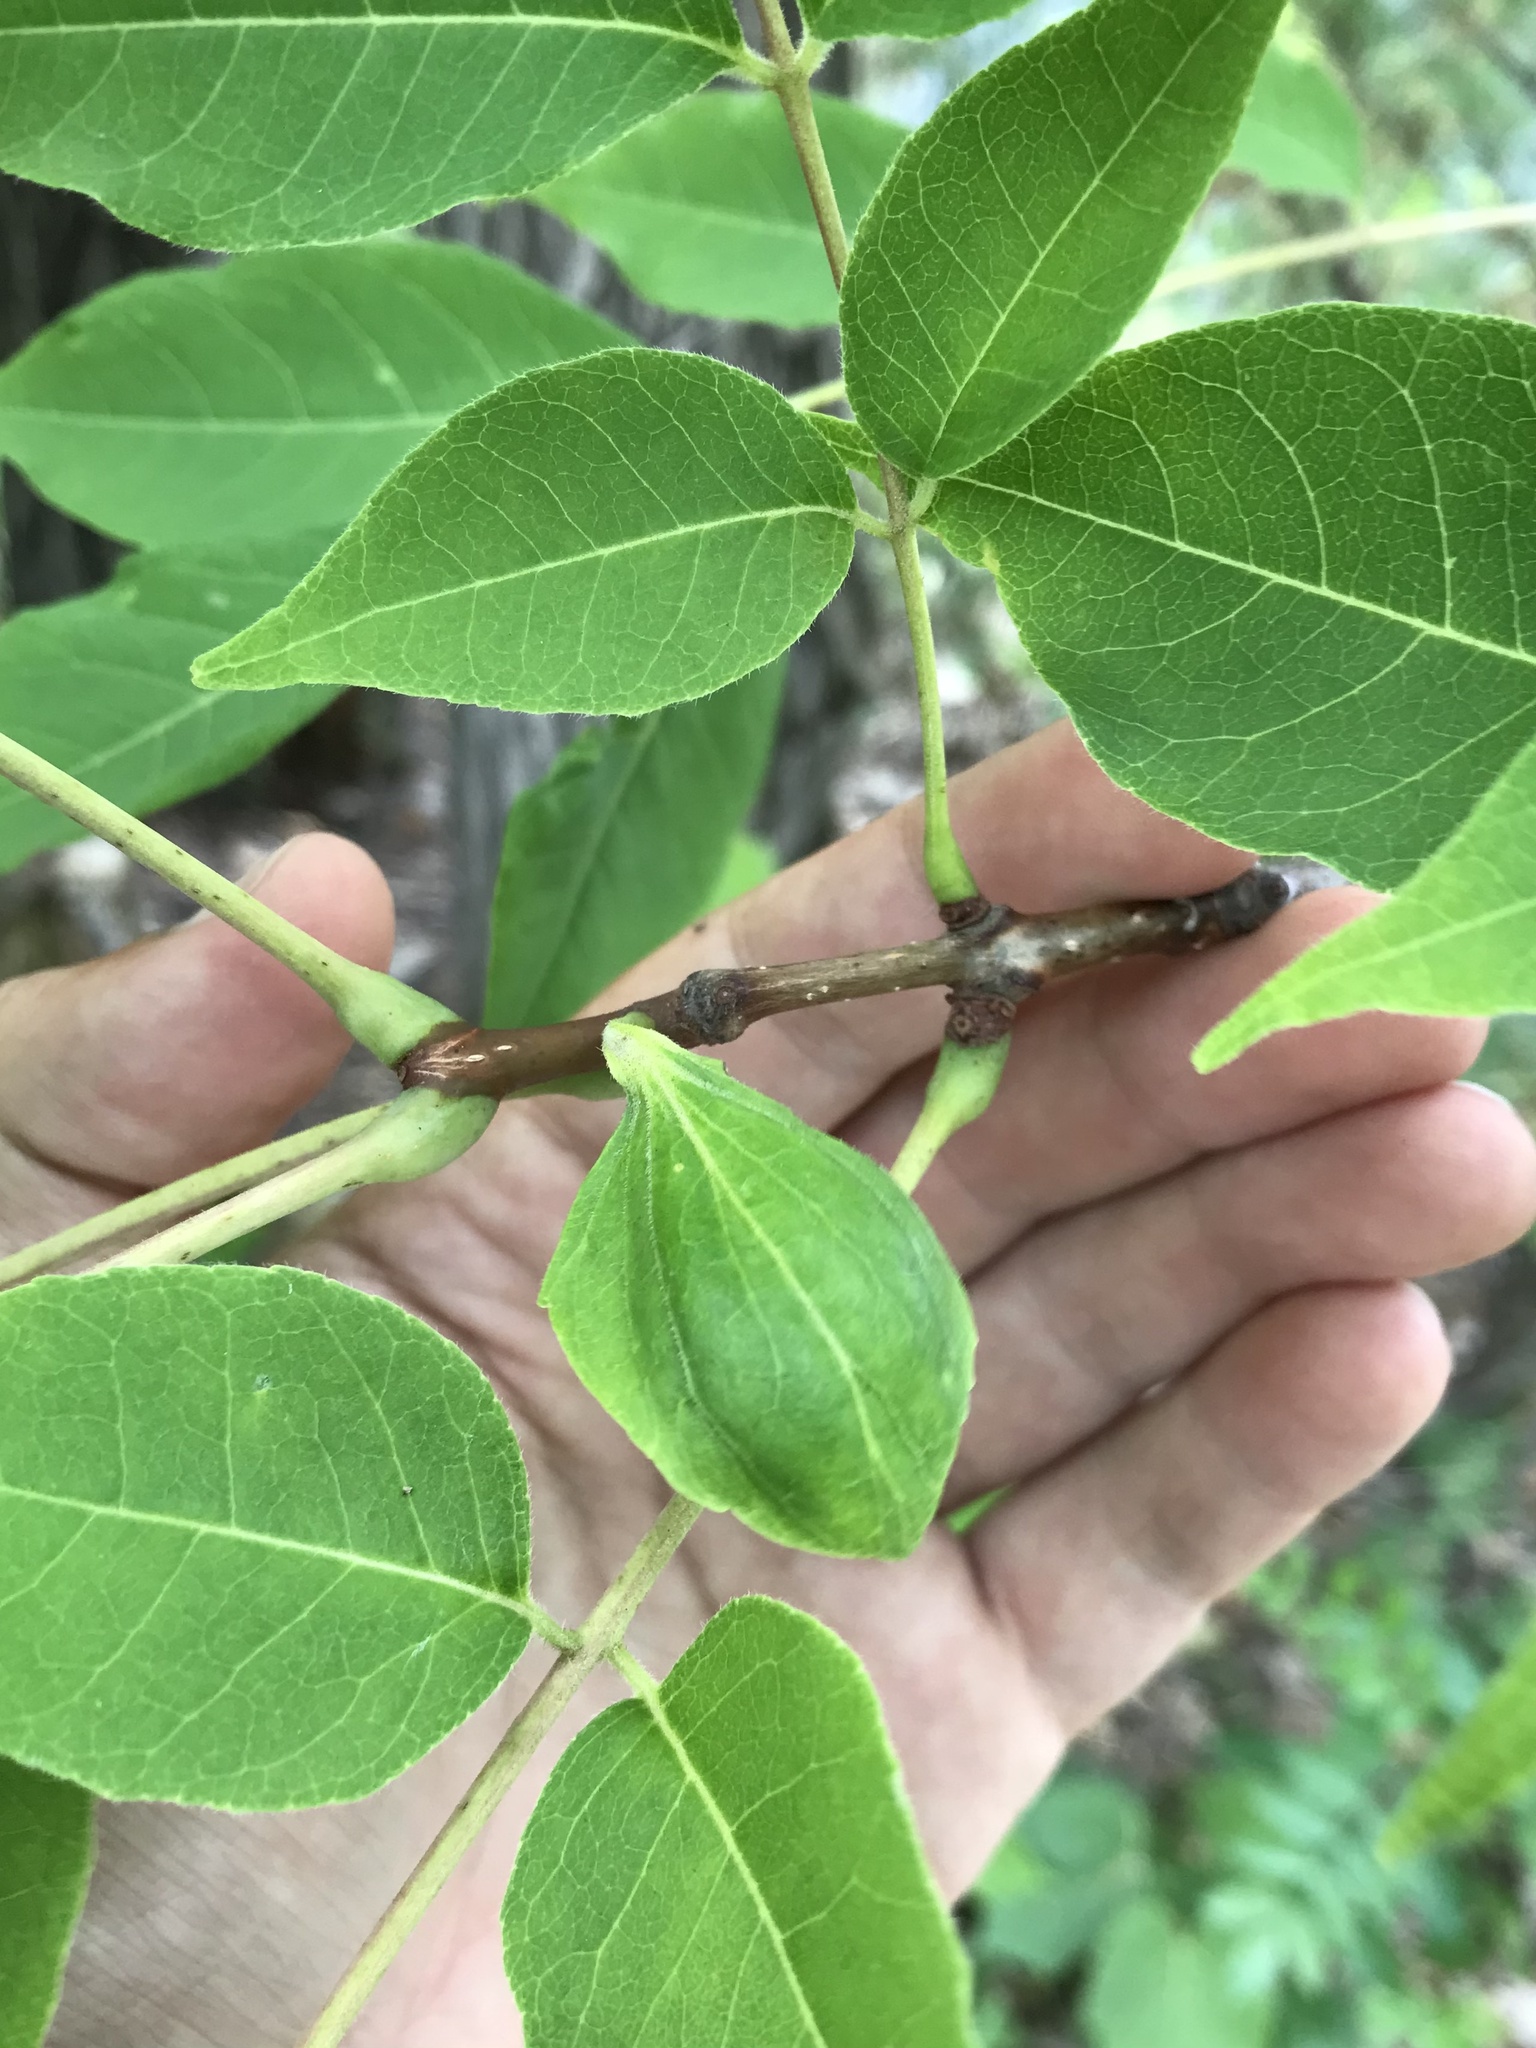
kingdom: Plantae
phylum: Tracheophyta
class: Magnoliopsida
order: Sapindales
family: Rutaceae
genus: Phellodendron
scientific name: Phellodendron amurense
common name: Amur corktree
